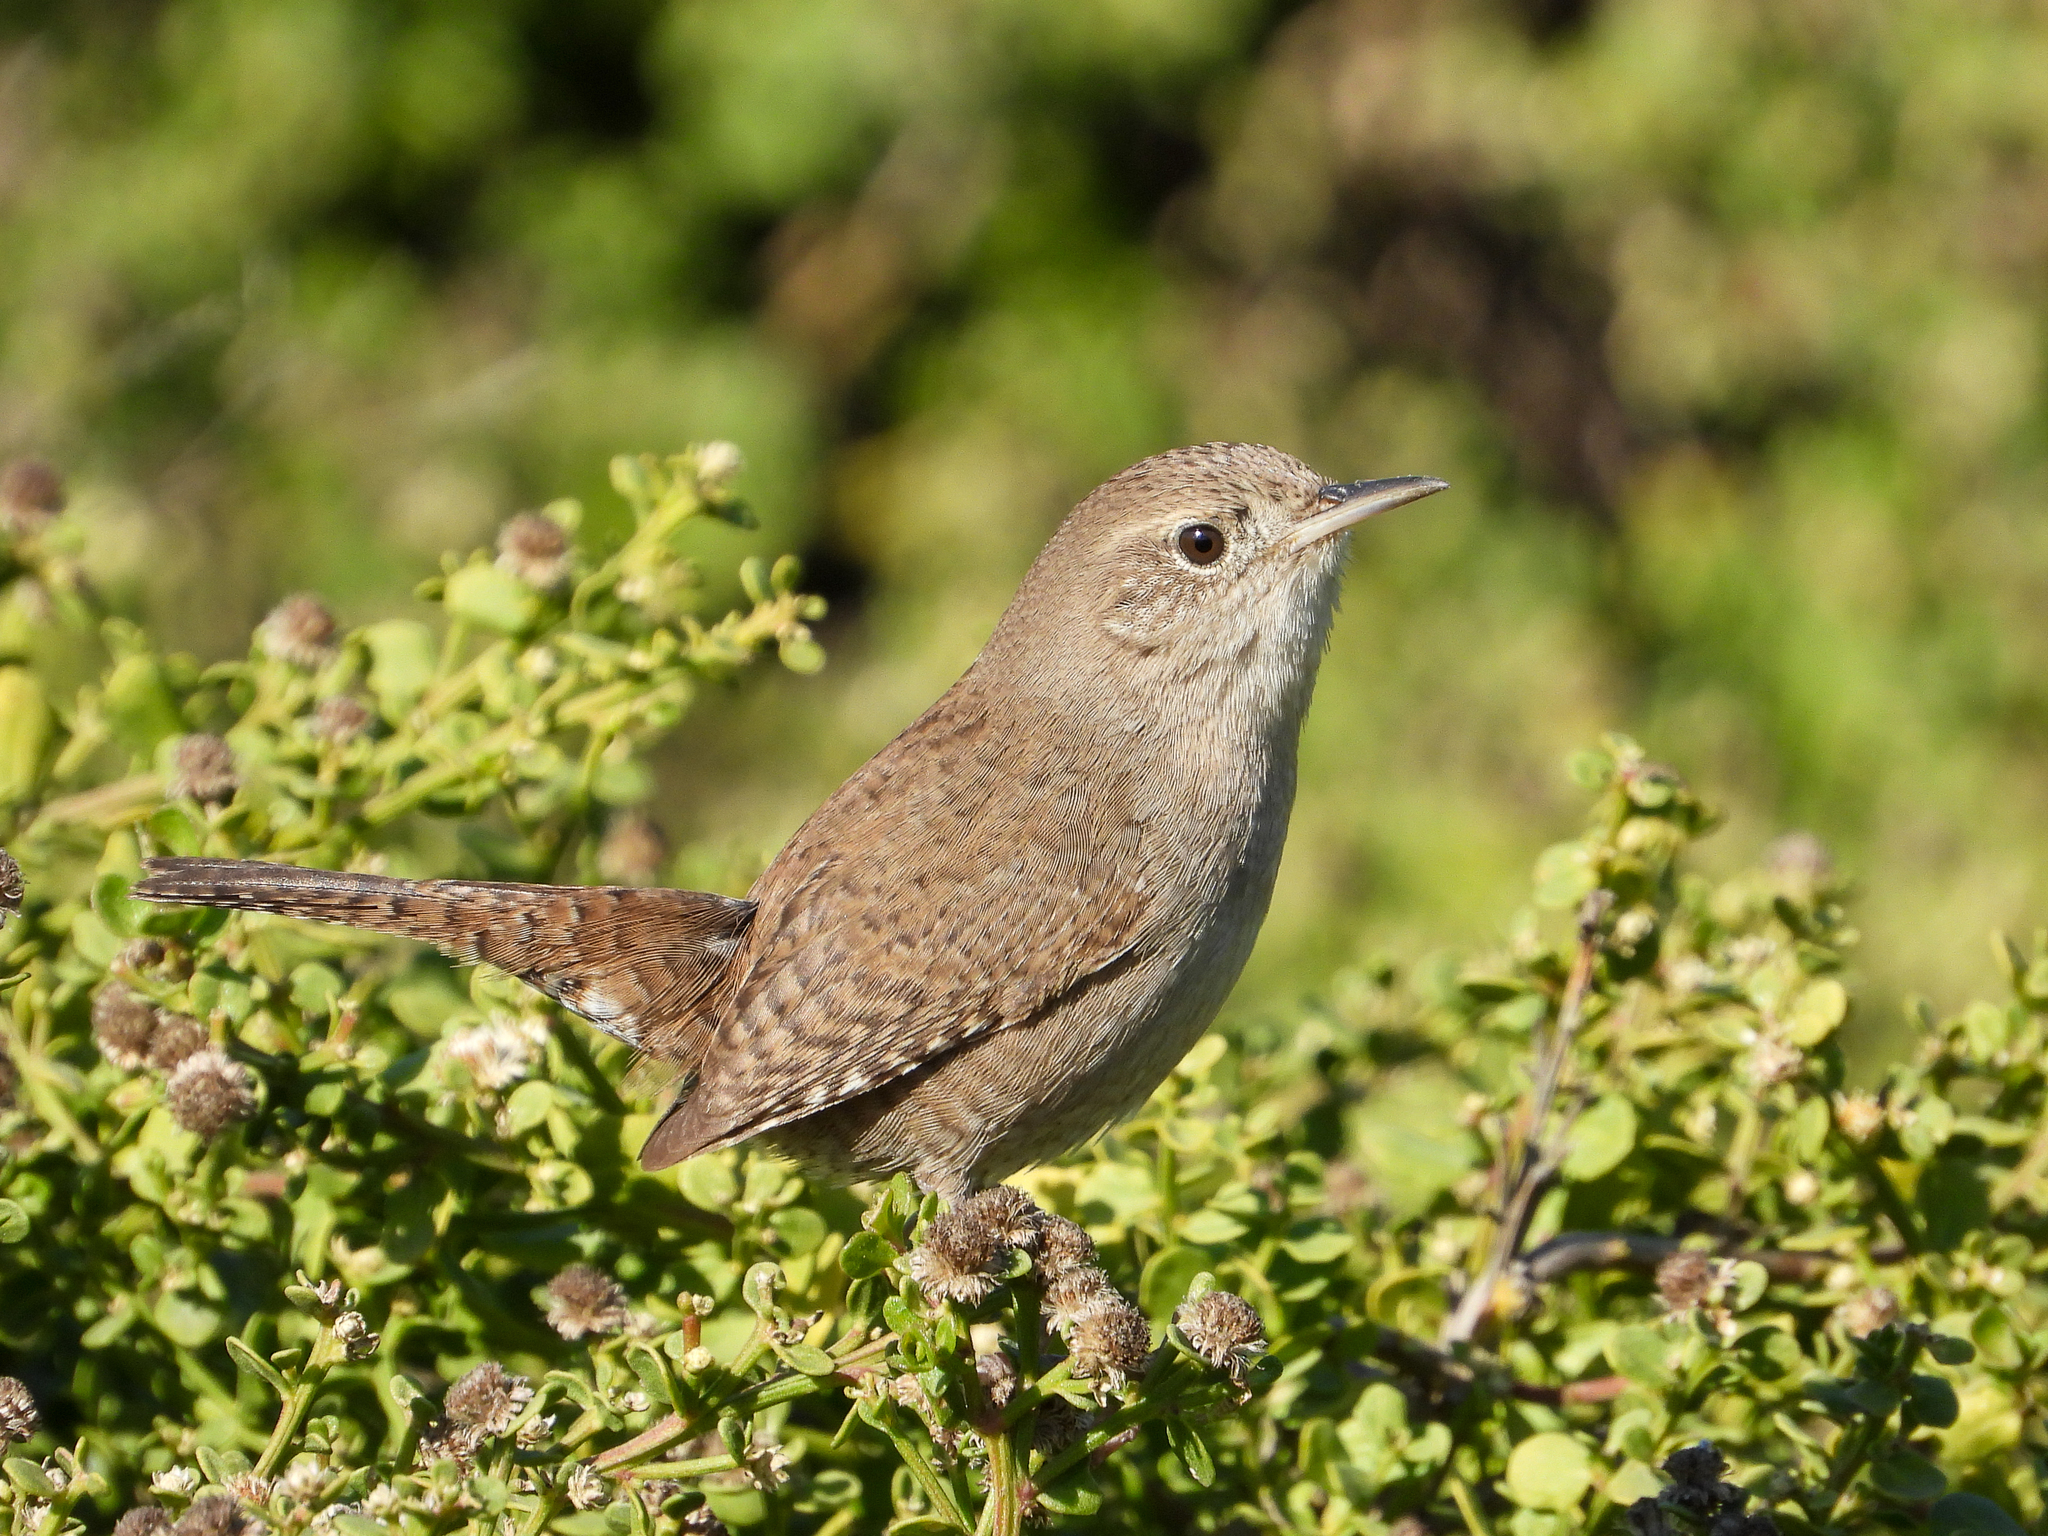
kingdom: Animalia
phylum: Chordata
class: Aves
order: Passeriformes
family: Troglodytidae
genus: Troglodytes
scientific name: Troglodytes aedon
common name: House wren
